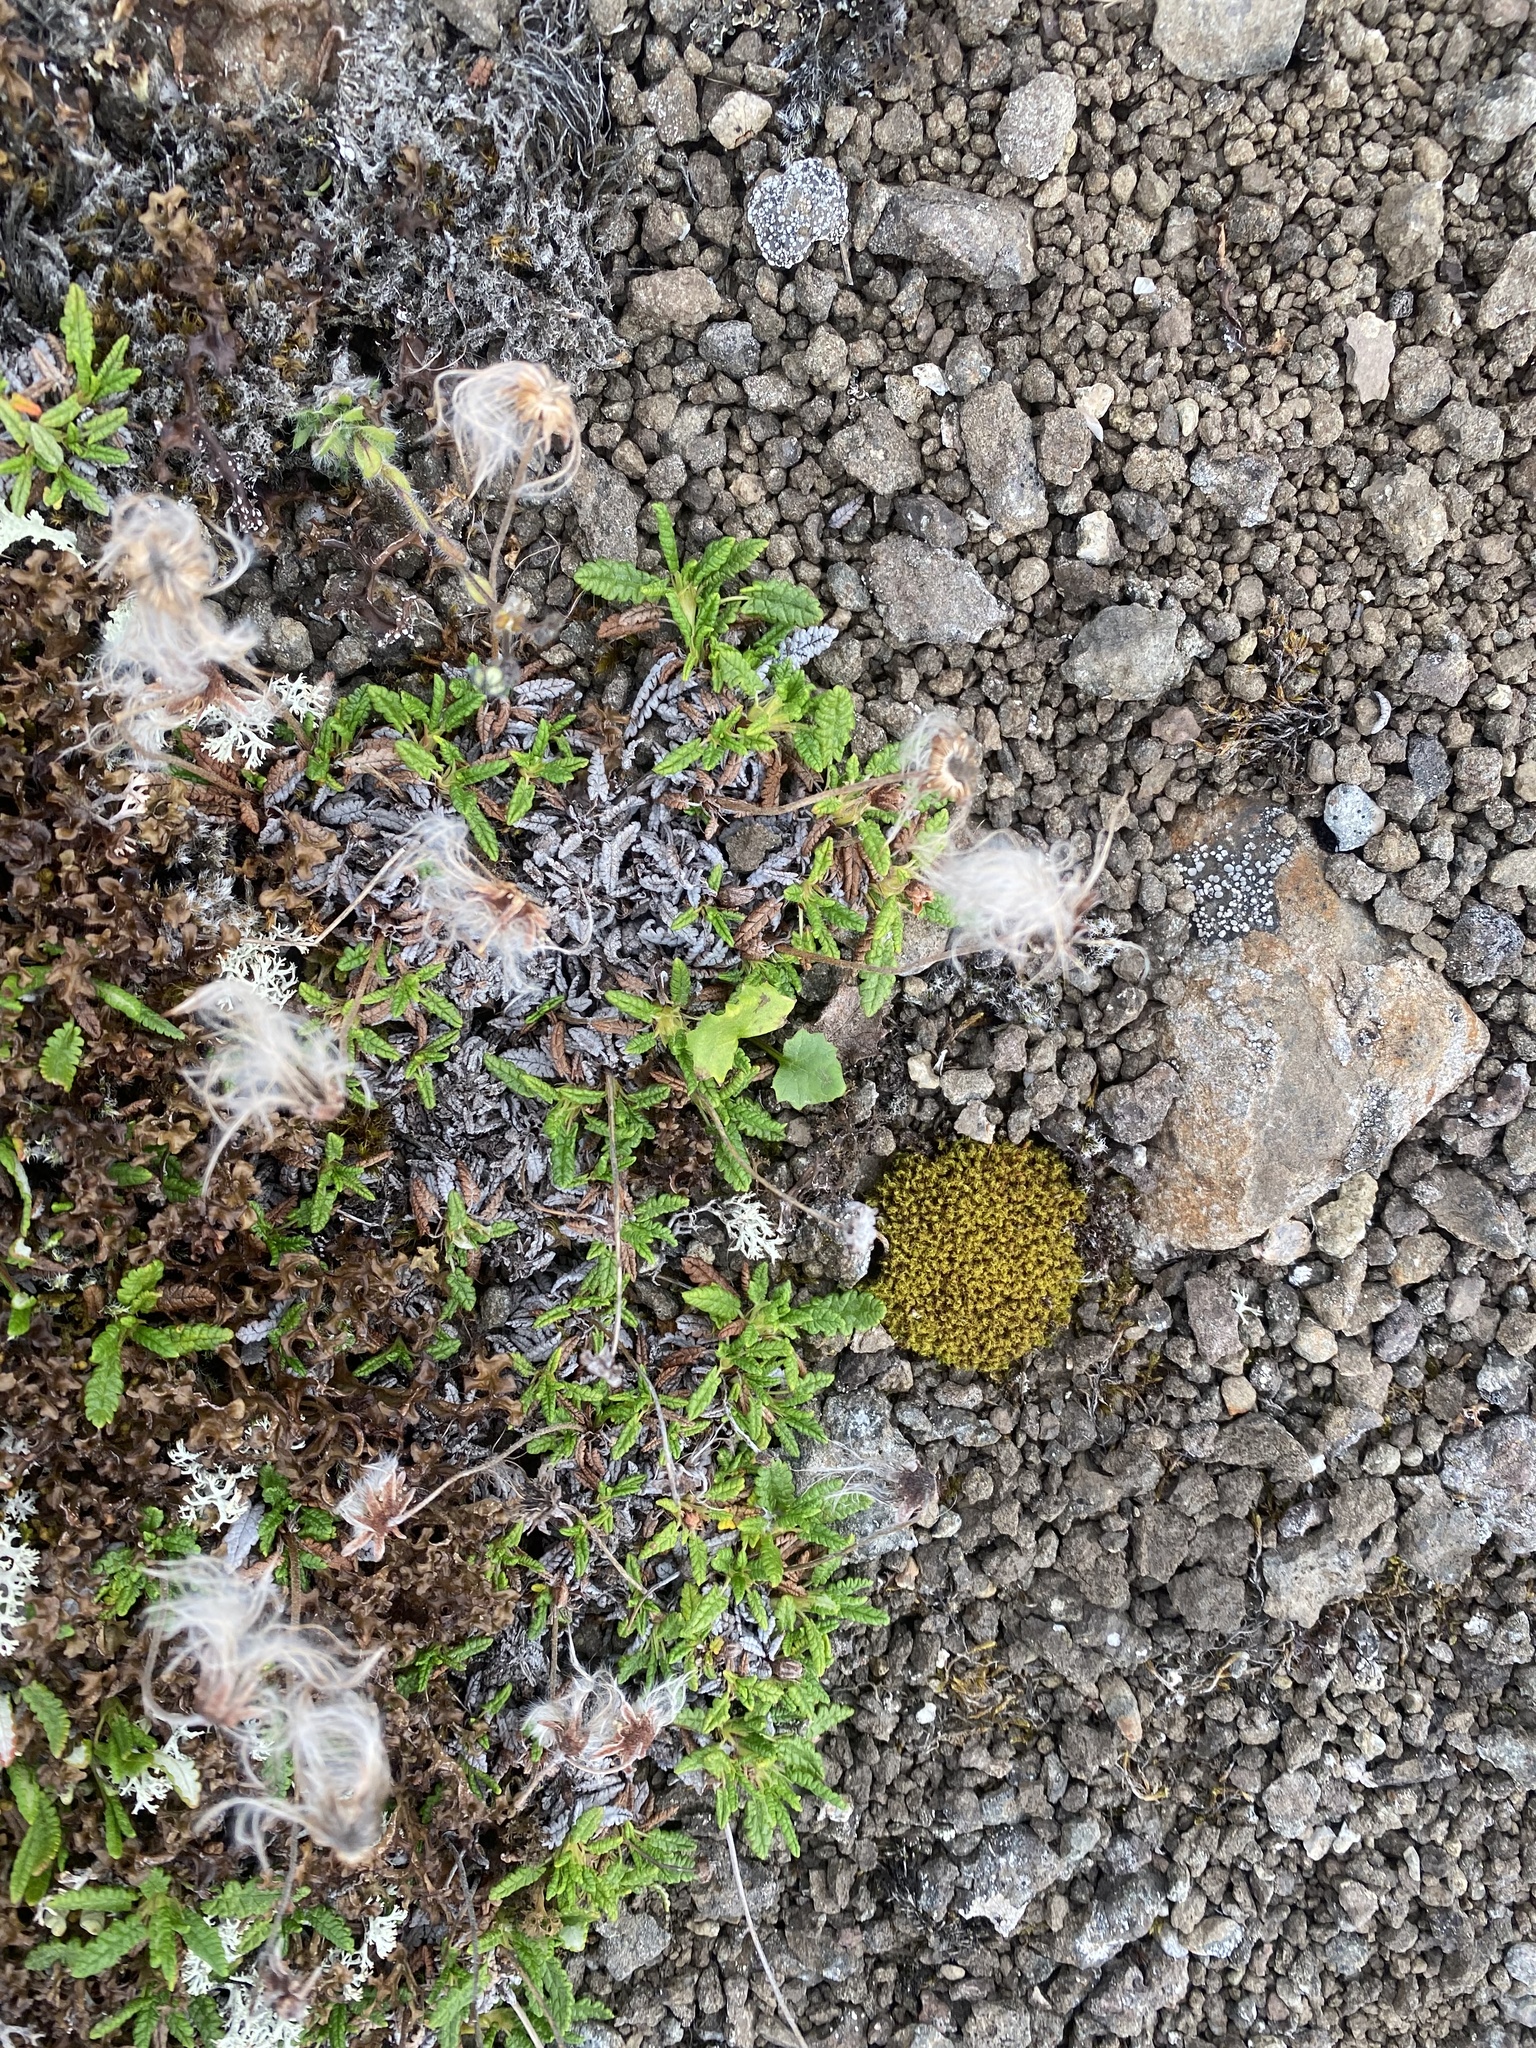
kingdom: Plantae
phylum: Tracheophyta
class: Magnoliopsida
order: Rosales
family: Rosaceae
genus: Dryas
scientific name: Dryas octopetala
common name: Eight-petal mountain-avens
